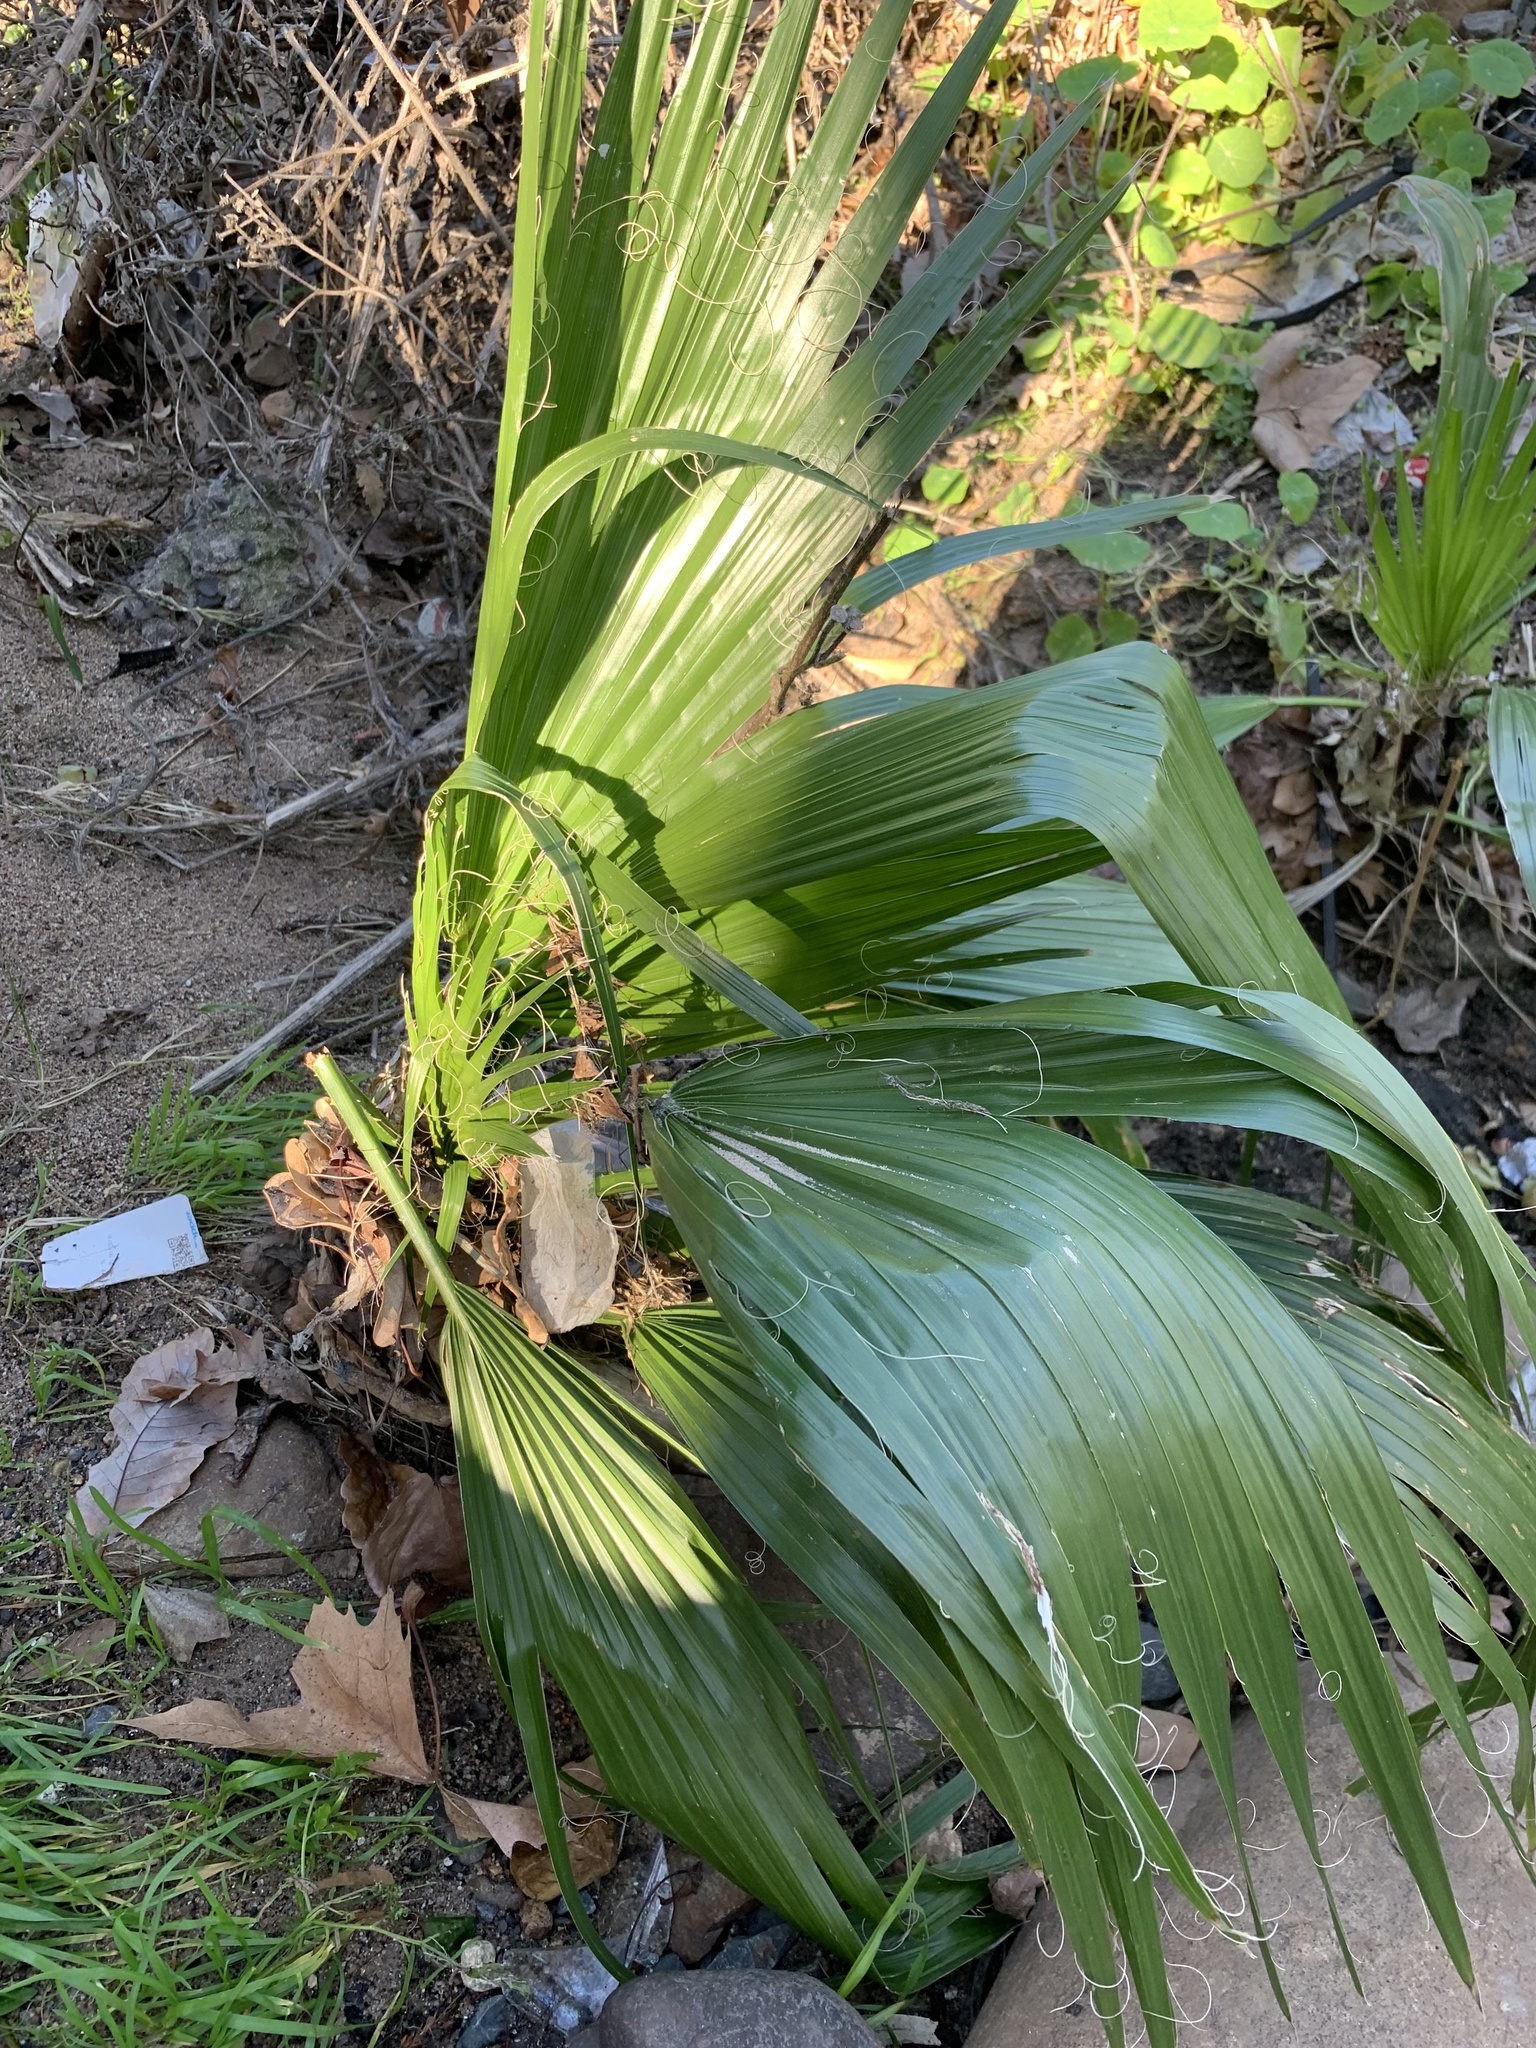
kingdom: Plantae
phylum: Tracheophyta
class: Liliopsida
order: Arecales
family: Arecaceae
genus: Washingtonia
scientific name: Washingtonia robusta
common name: Mexican fan palm
